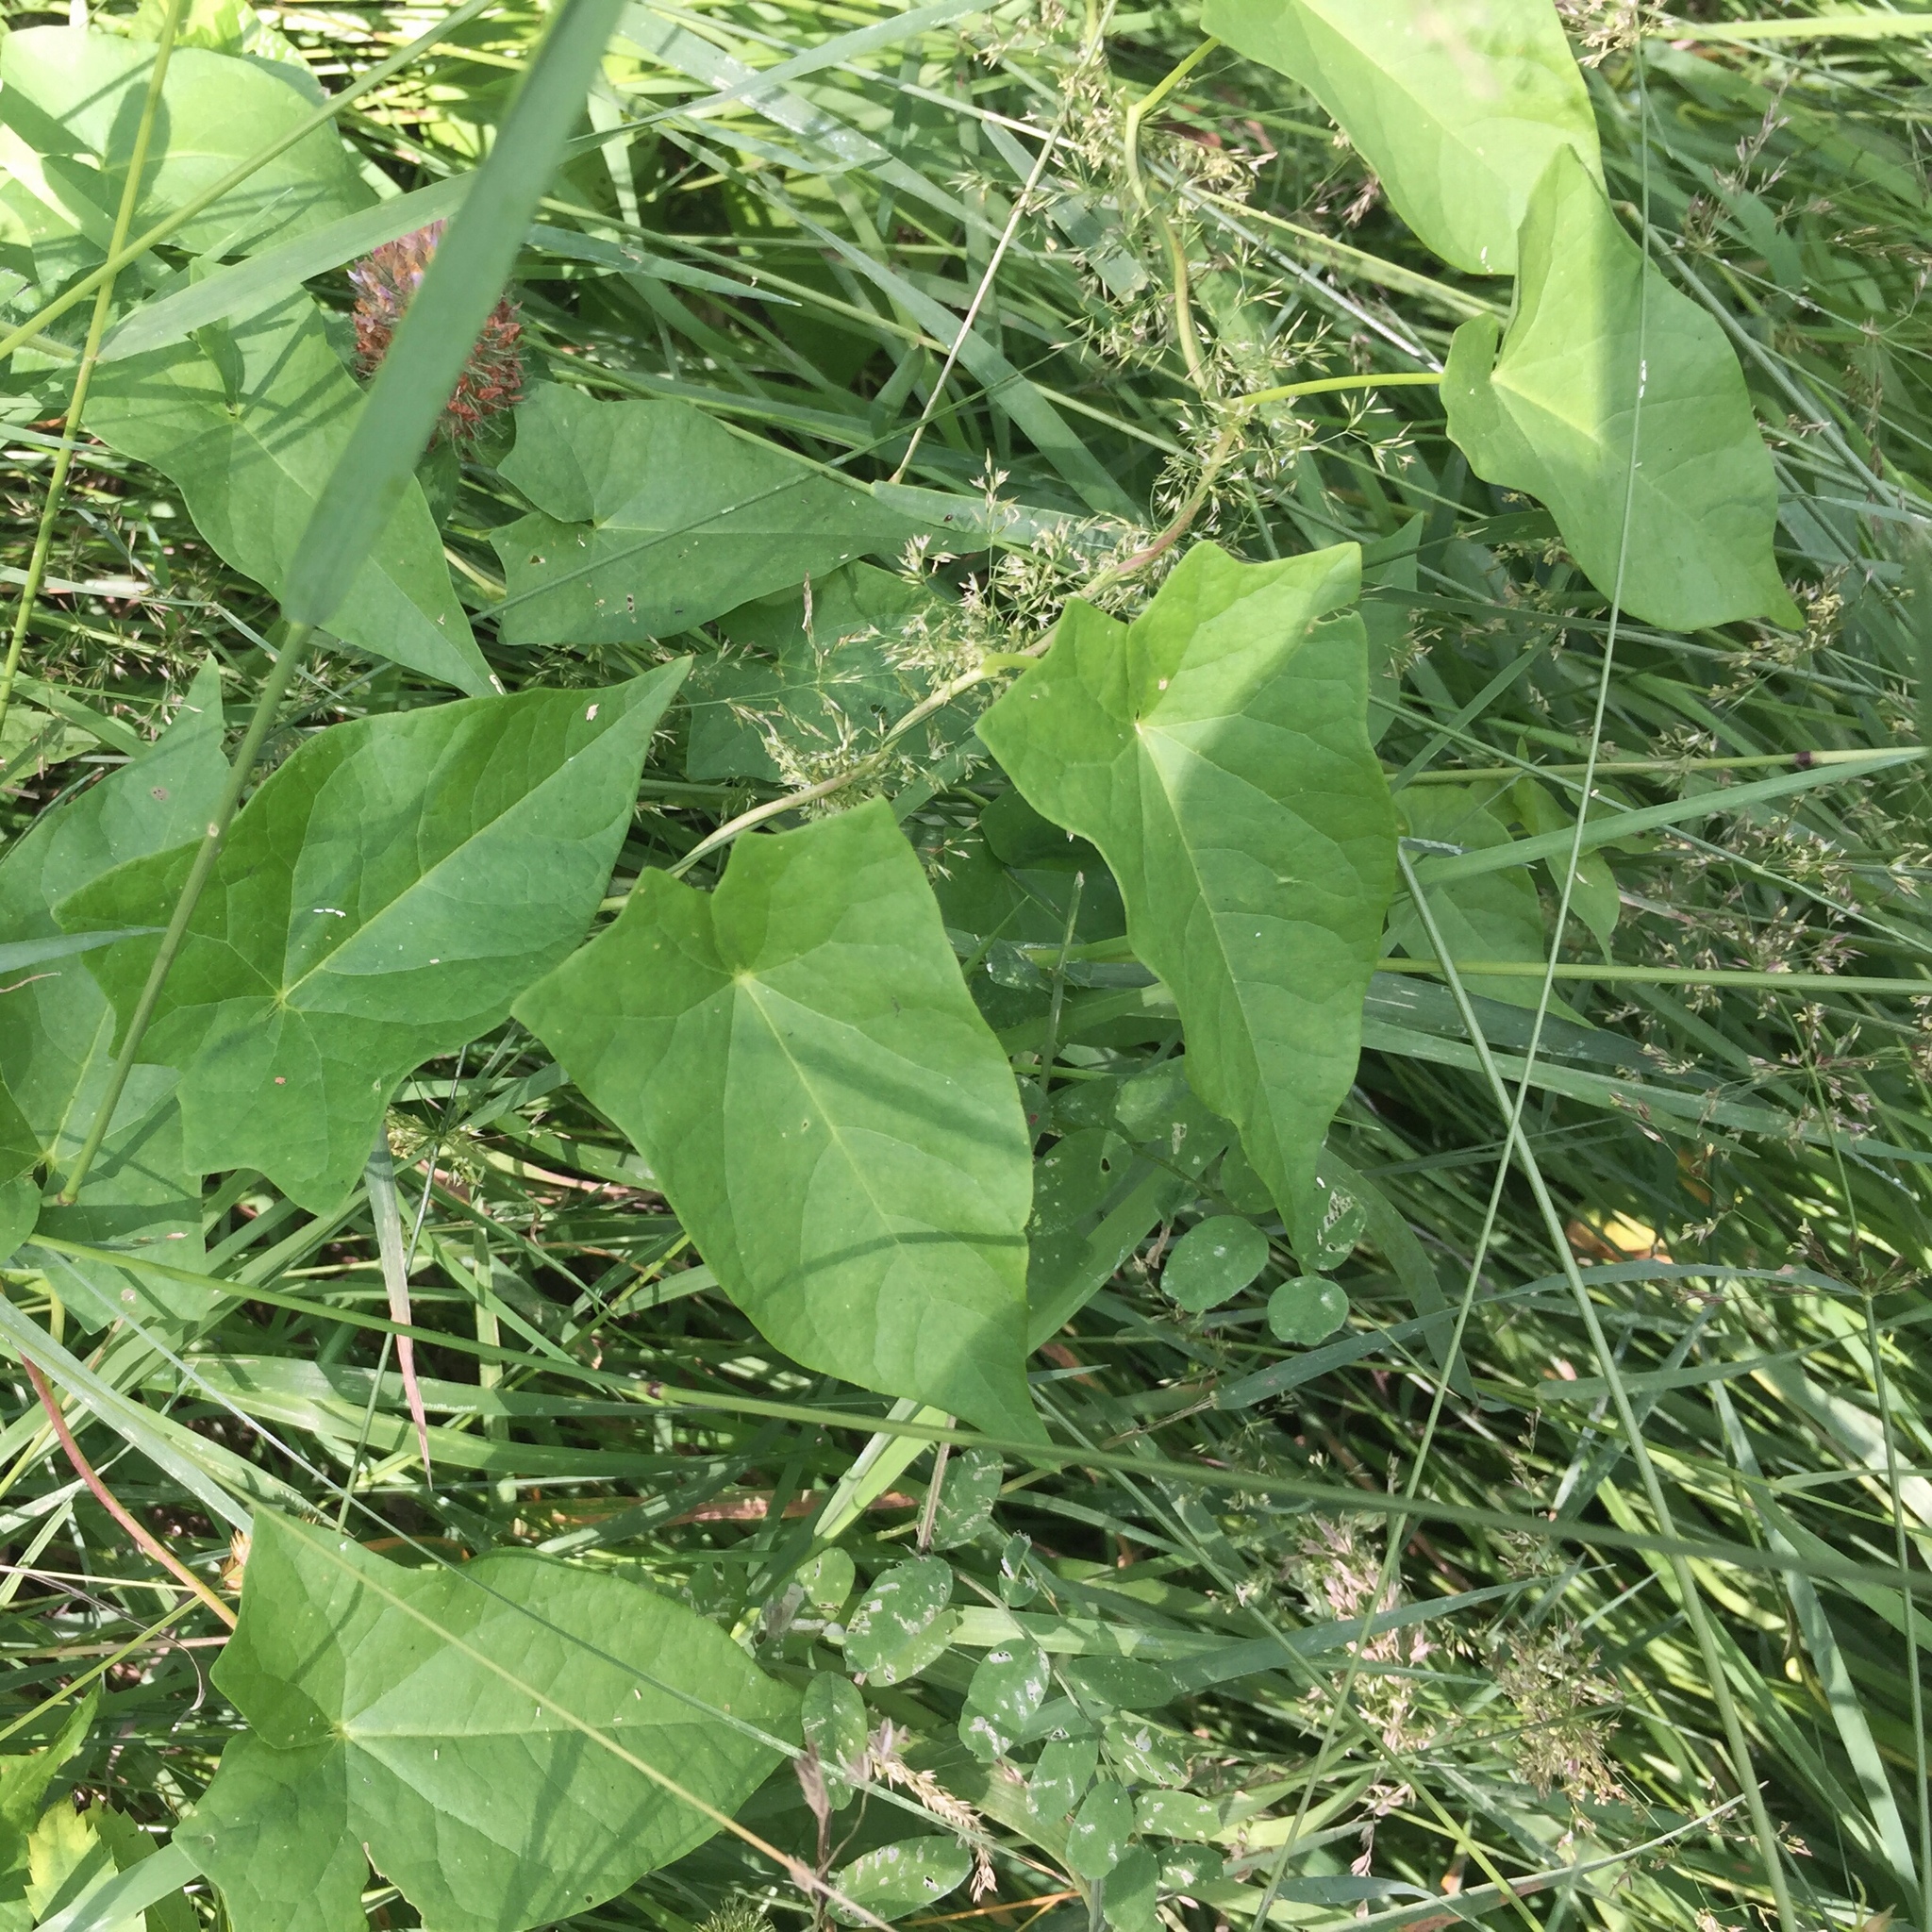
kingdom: Plantae
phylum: Tracheophyta
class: Magnoliopsida
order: Solanales
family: Convolvulaceae
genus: Calystegia
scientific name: Calystegia sepium
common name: Hedge bindweed
